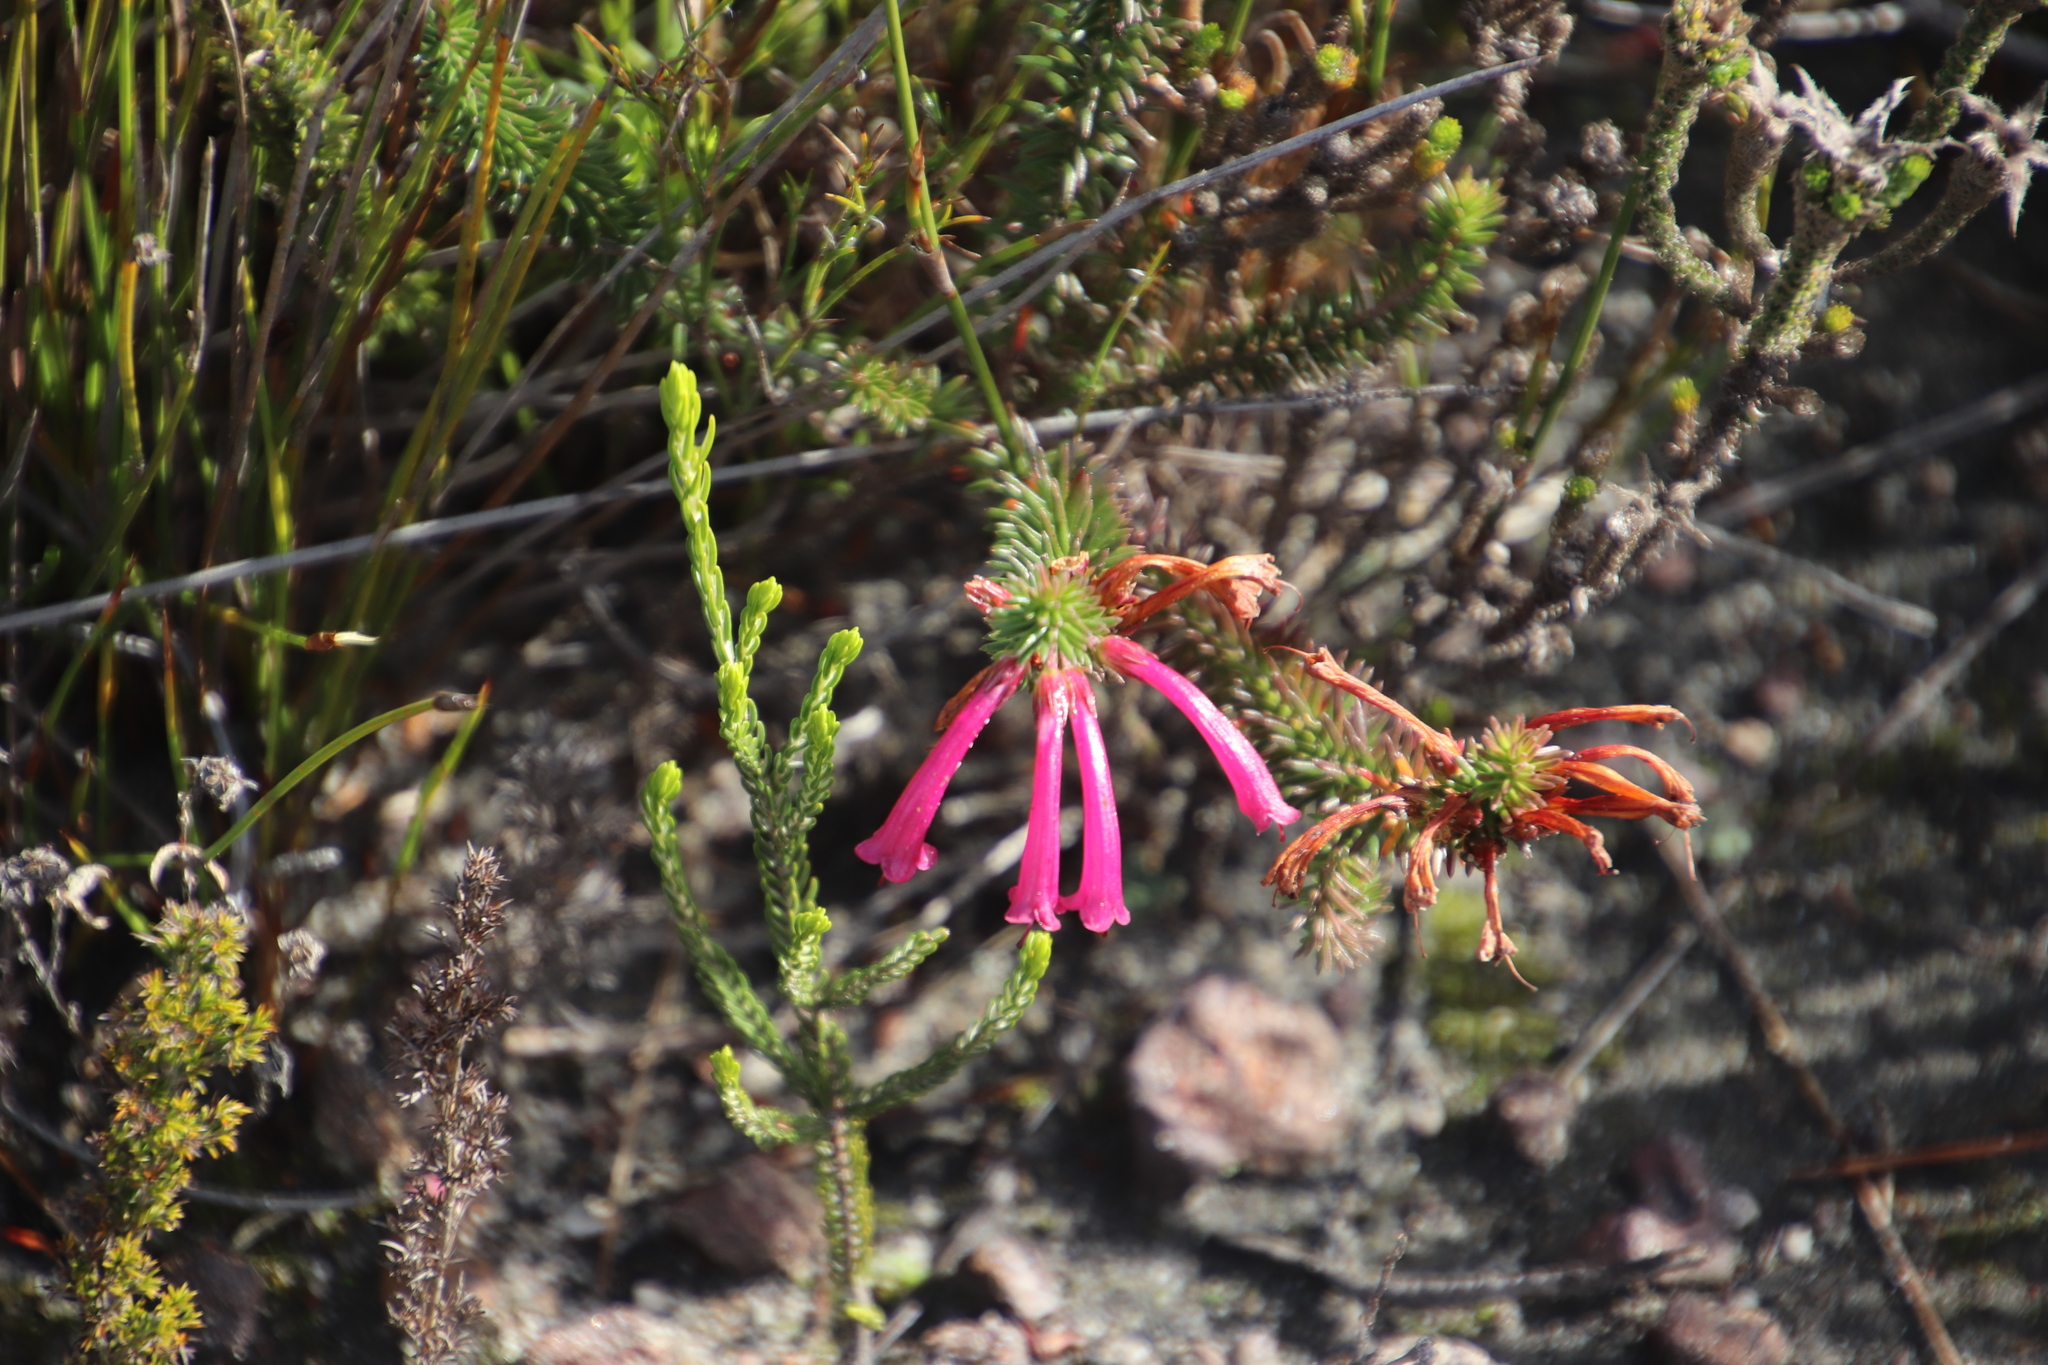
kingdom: Plantae
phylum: Tracheophyta
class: Magnoliopsida
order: Ericales
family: Ericaceae
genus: Erica
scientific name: Erica abietina
